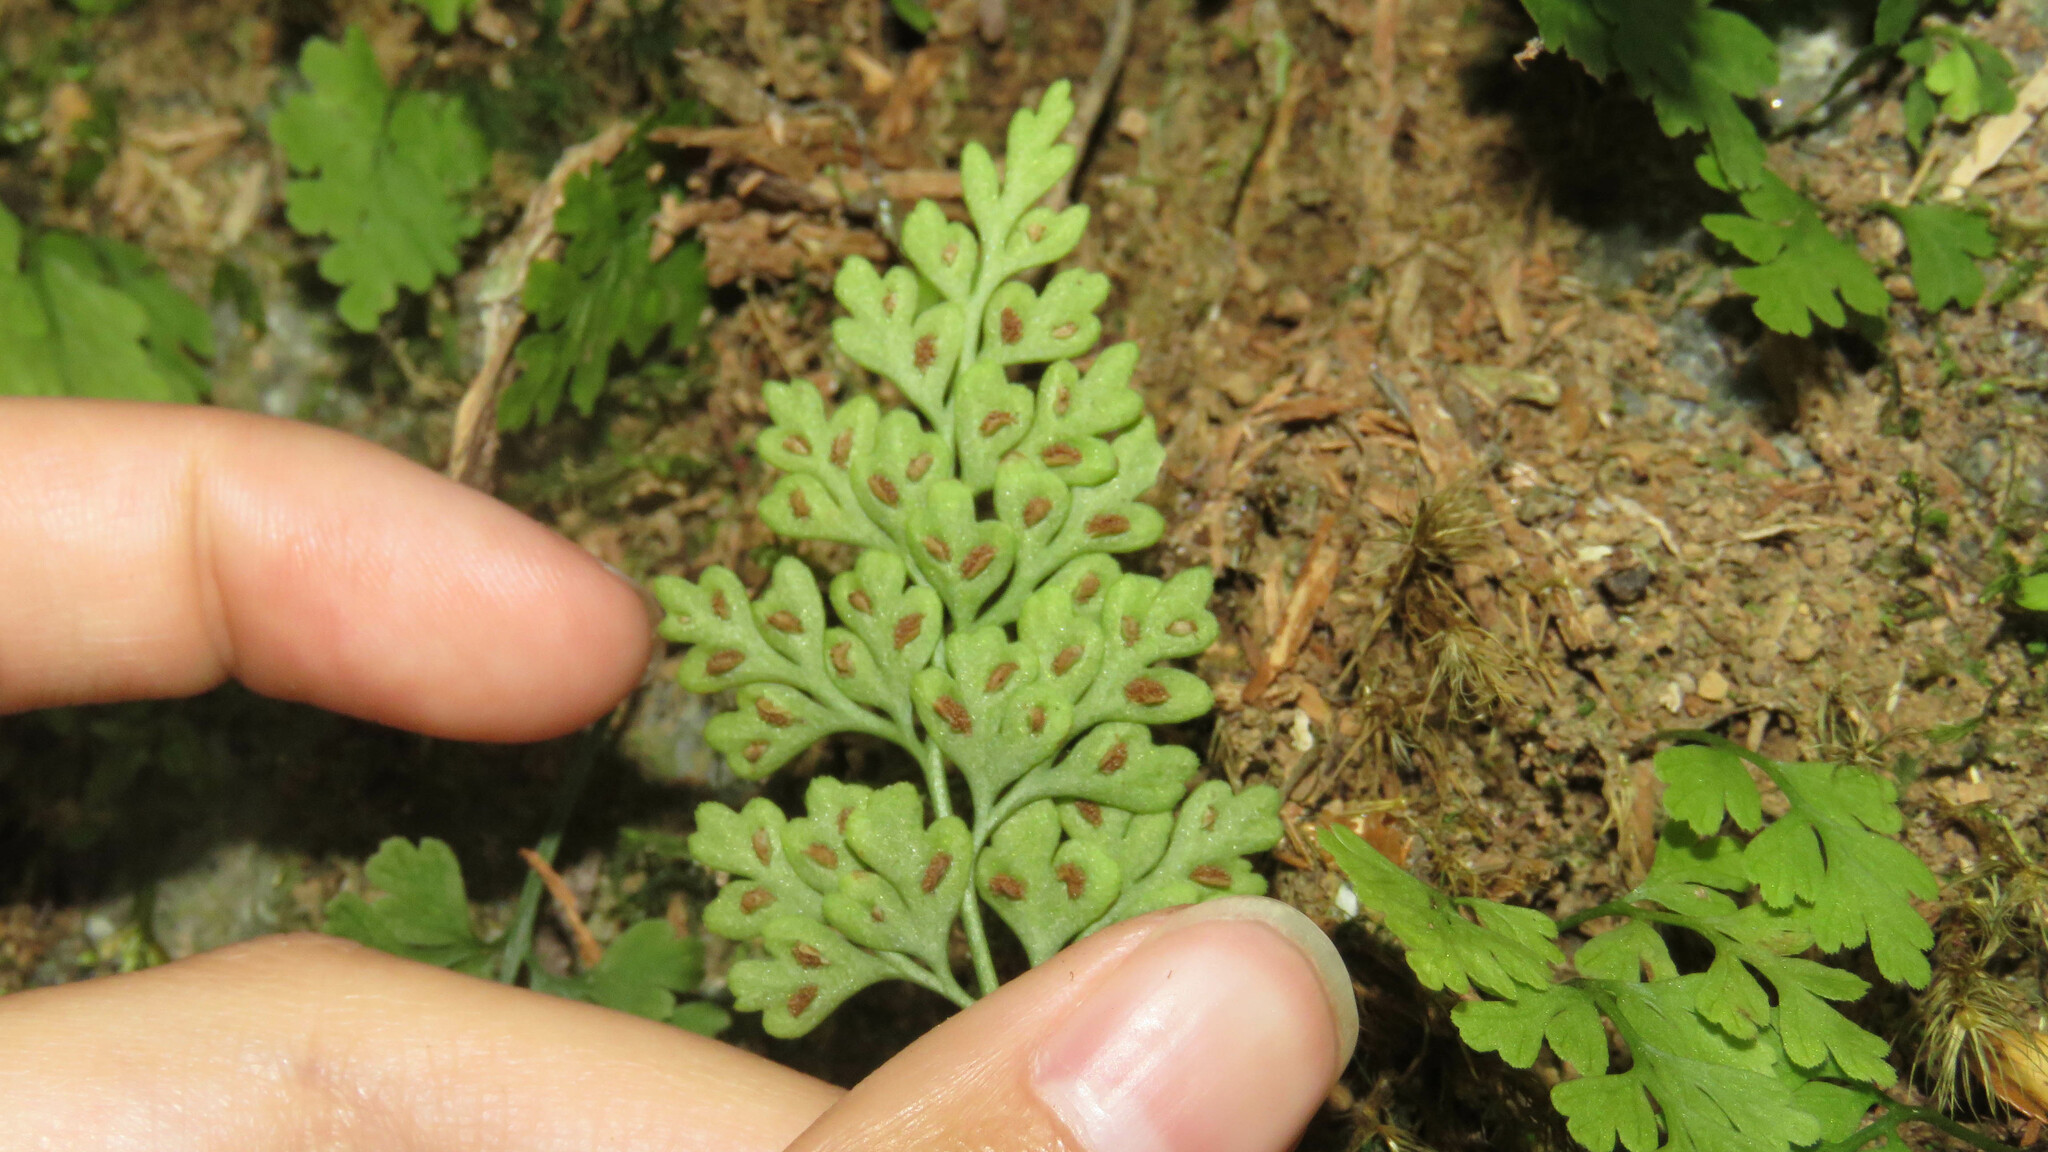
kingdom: Plantae
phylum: Tracheophyta
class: Polypodiopsida
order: Polypodiales
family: Aspleniaceae
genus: Asplenium
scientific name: Asplenium dareoides
